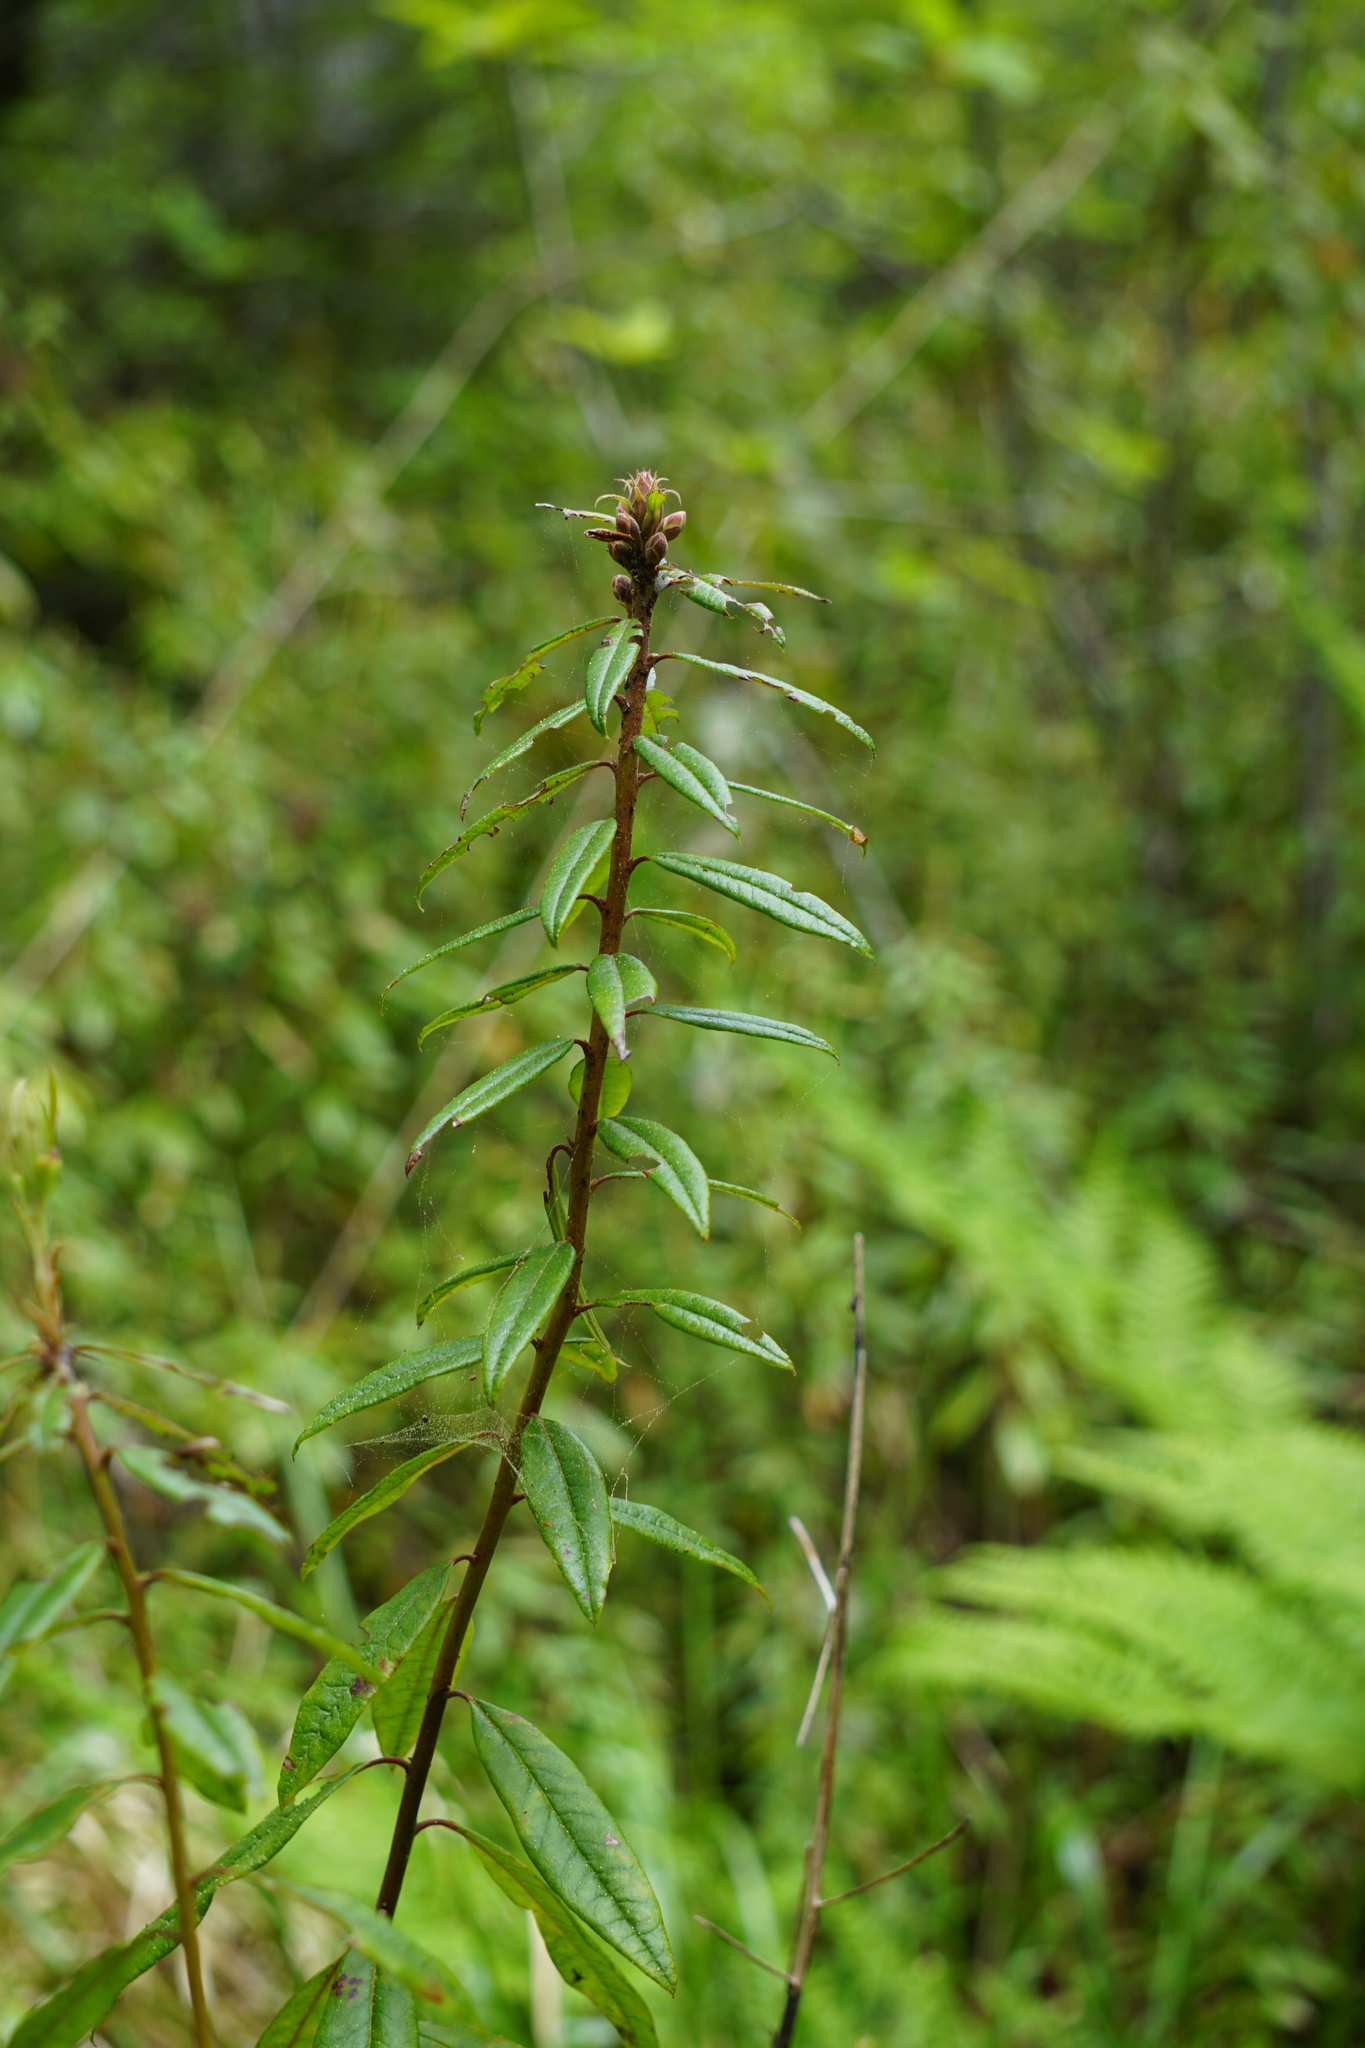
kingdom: Plantae
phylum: Tracheophyta
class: Magnoliopsida
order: Ericales
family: Ericaceae
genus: Rhododendron
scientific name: Rhododendron columbianum
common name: Western labrador tea
